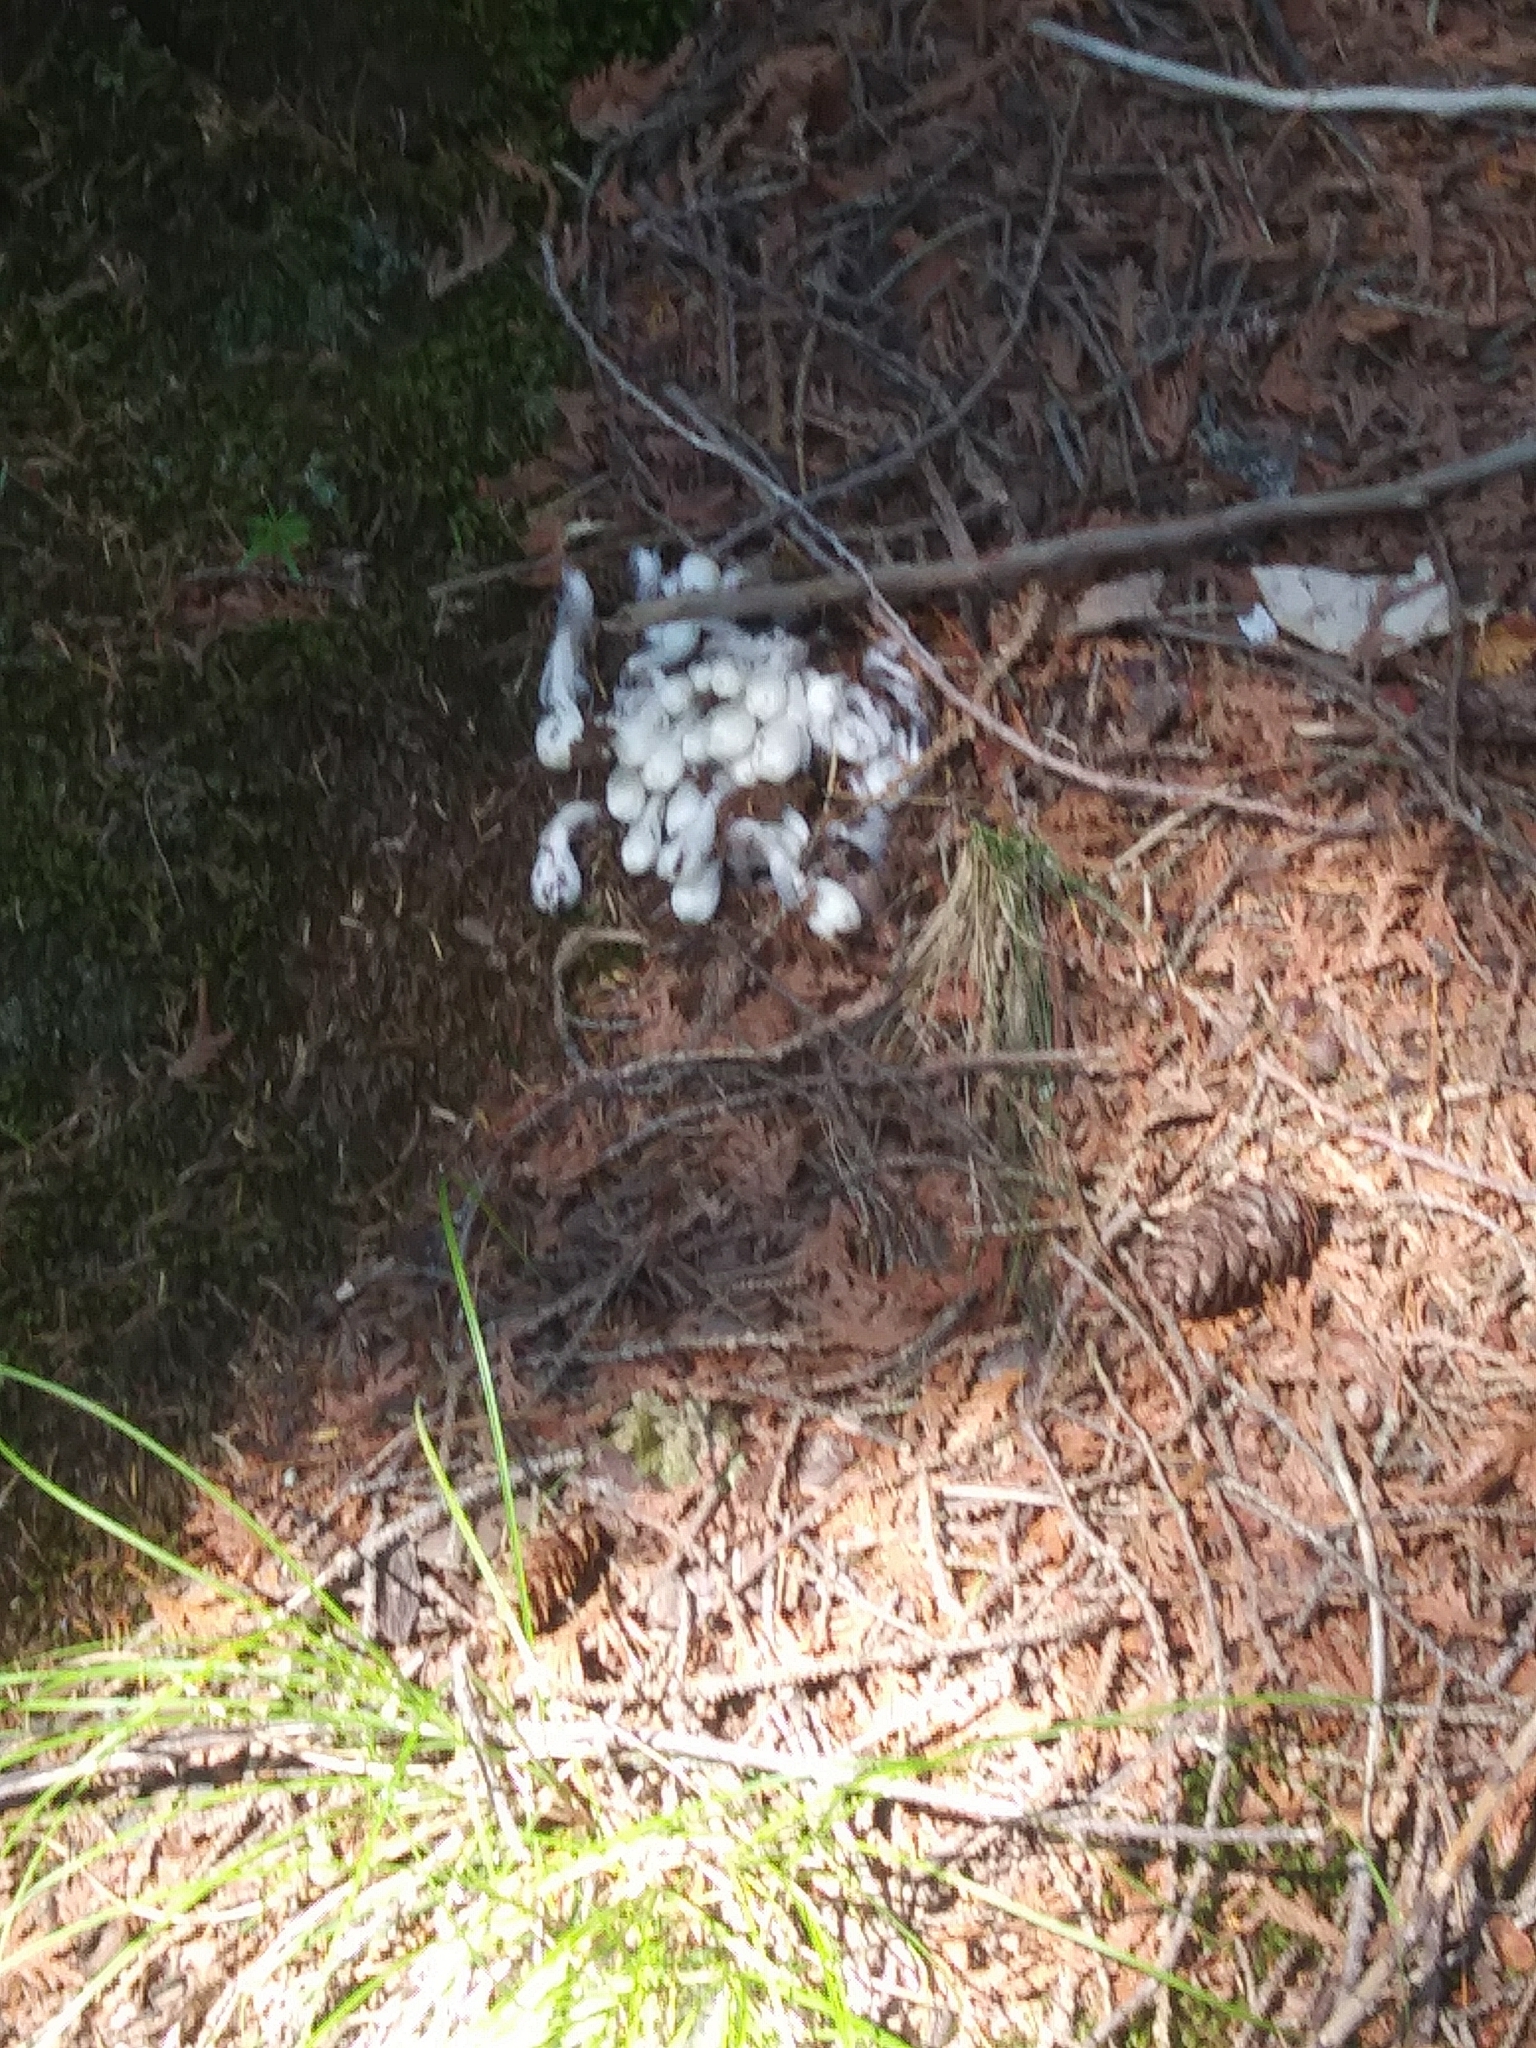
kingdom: Plantae
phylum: Tracheophyta
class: Magnoliopsida
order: Ericales
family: Ericaceae
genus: Monotropa
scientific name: Monotropa uniflora
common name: Convulsion root
